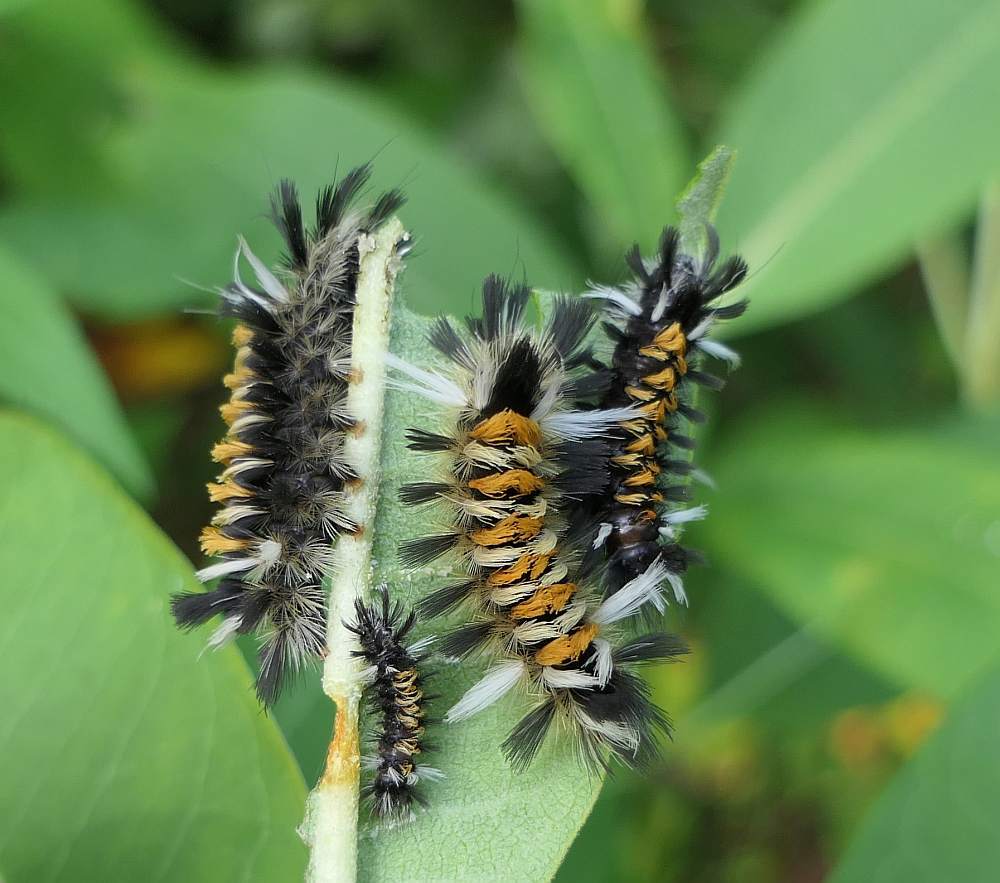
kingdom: Animalia
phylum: Arthropoda
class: Insecta
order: Lepidoptera
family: Erebidae
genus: Euchaetes
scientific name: Euchaetes egle
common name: Milkweed tussock moth
